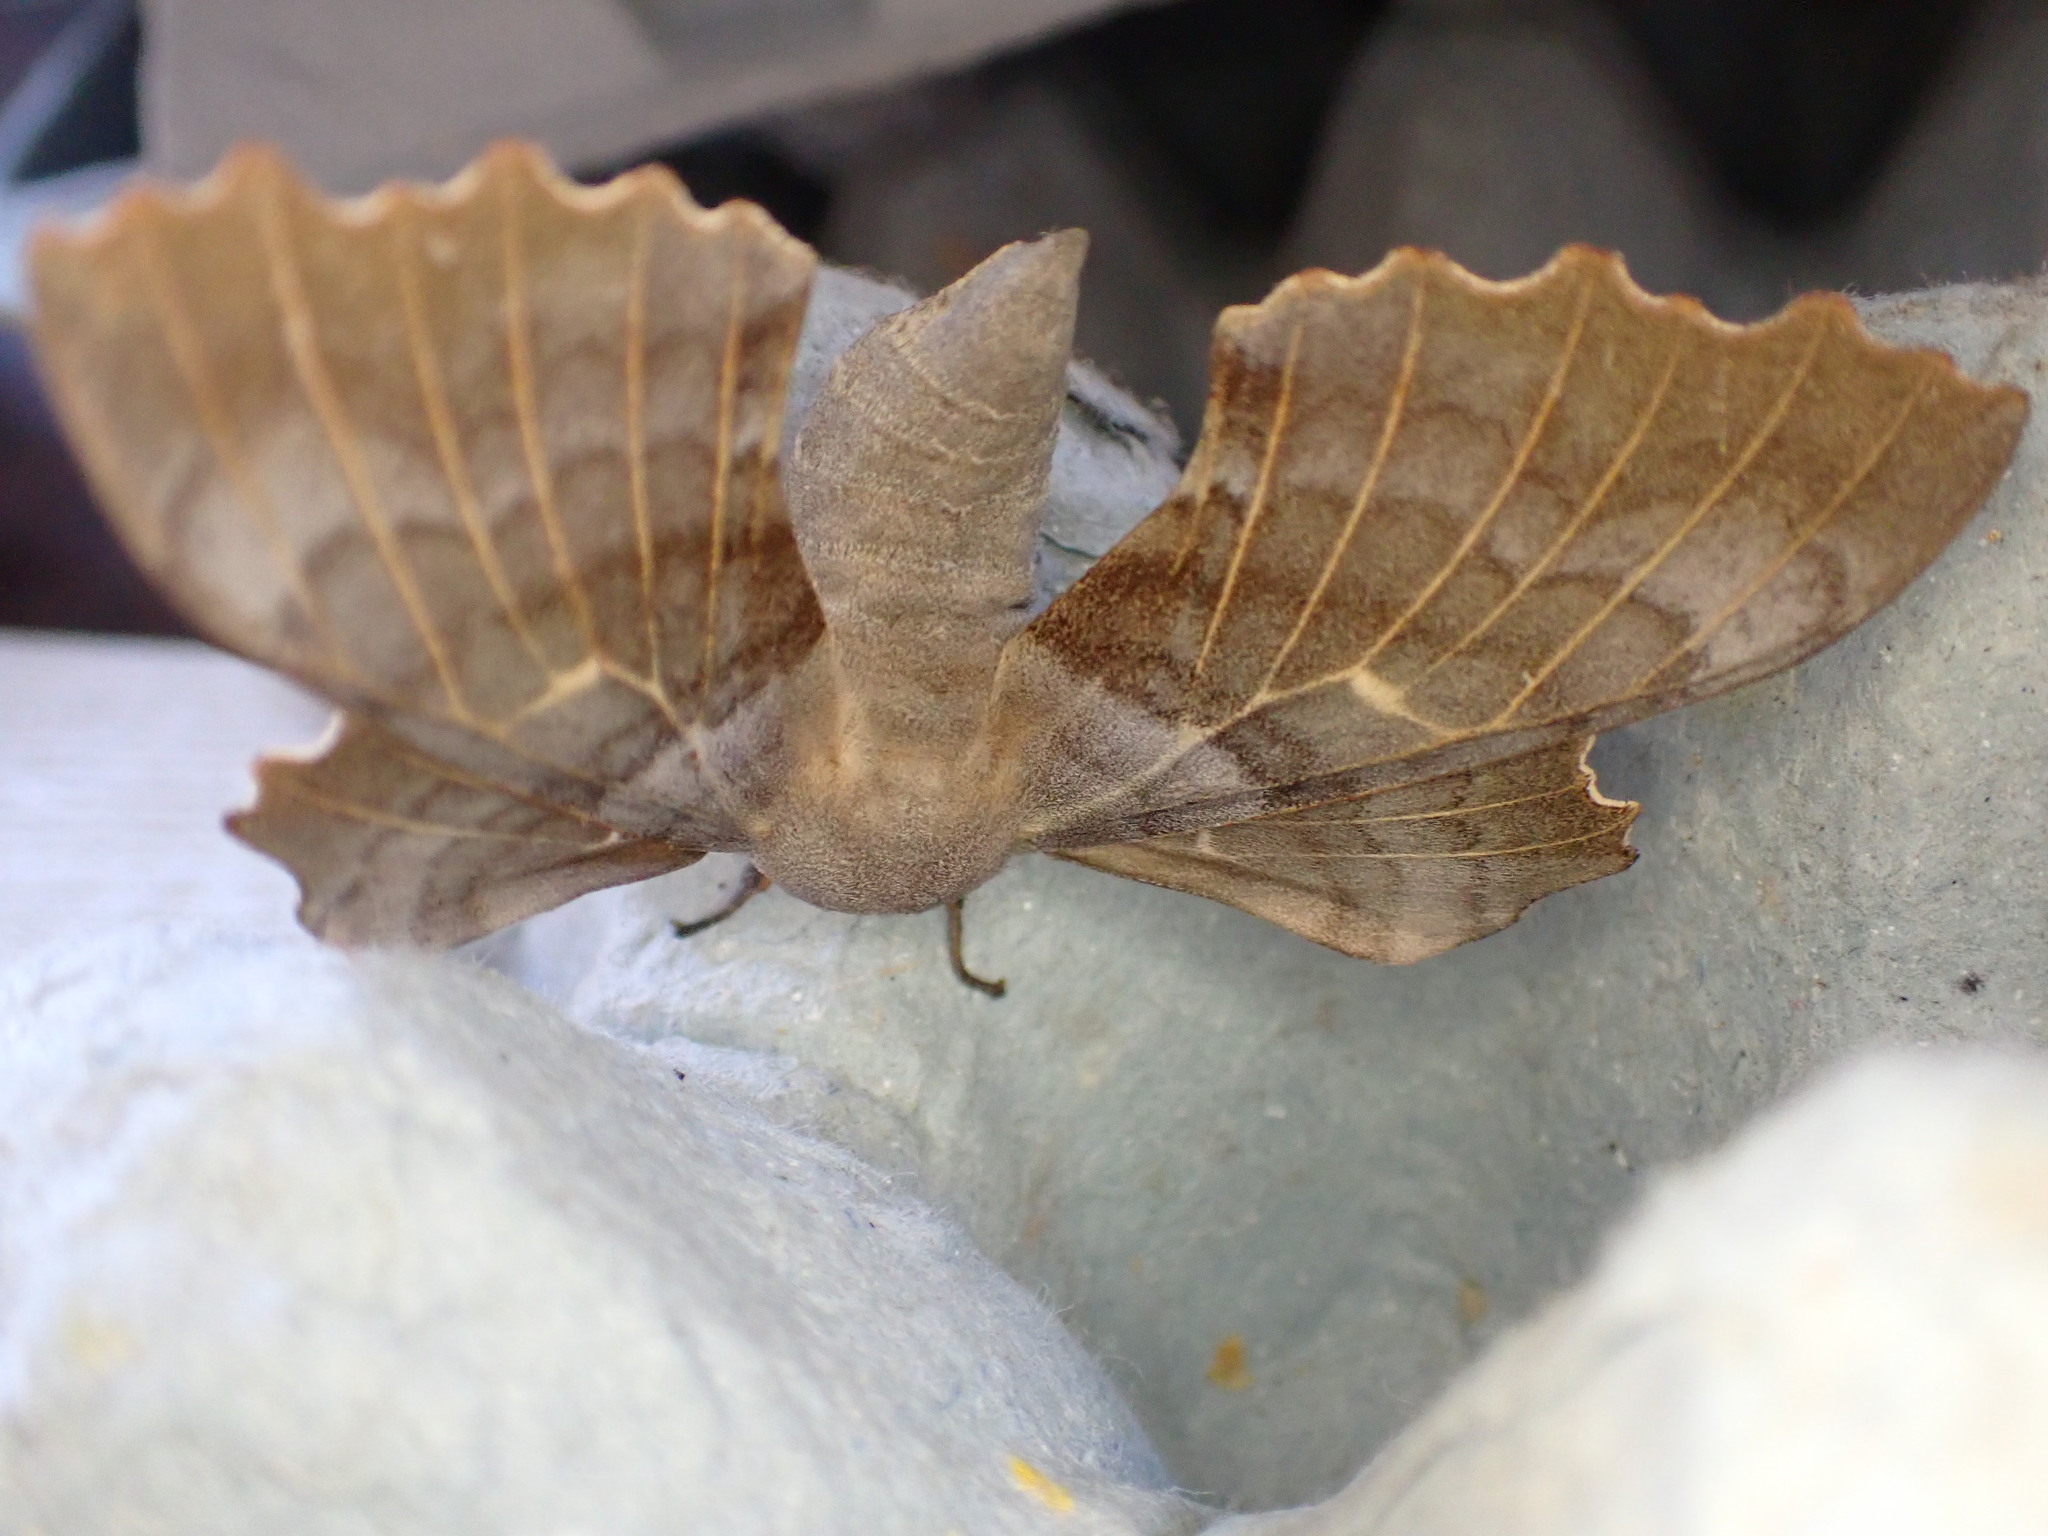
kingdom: Animalia
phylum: Arthropoda
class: Insecta
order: Lepidoptera
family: Sphingidae
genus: Laothoe
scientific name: Laothoe populi
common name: Poplar hawk-moth
